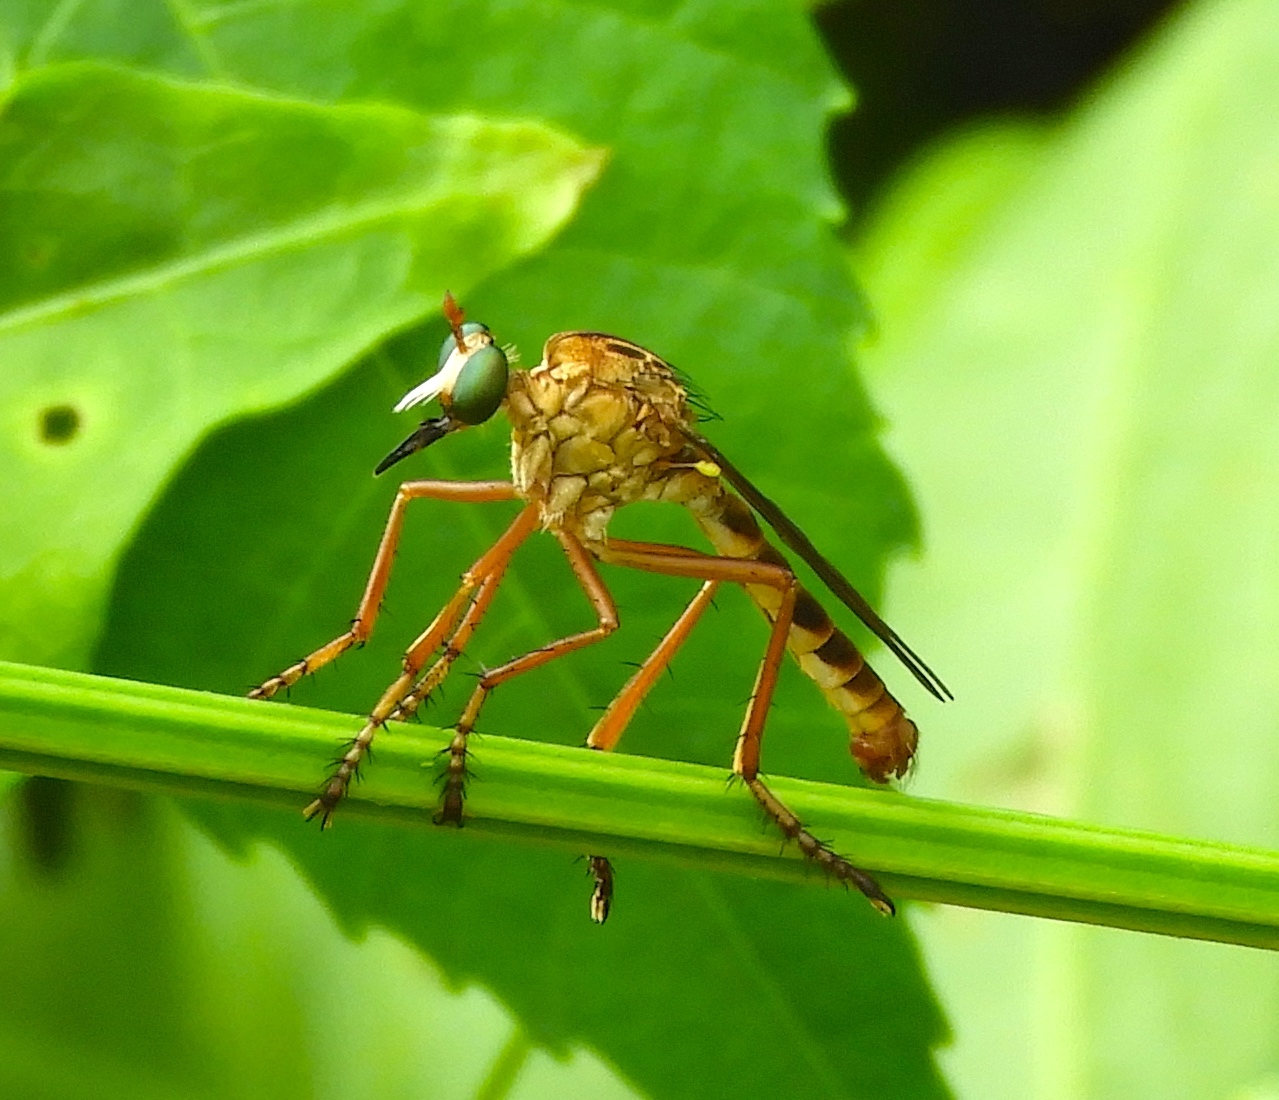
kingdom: Animalia
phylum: Arthropoda
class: Insecta
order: Diptera
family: Asilidae
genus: Diogmites
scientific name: Diogmites
